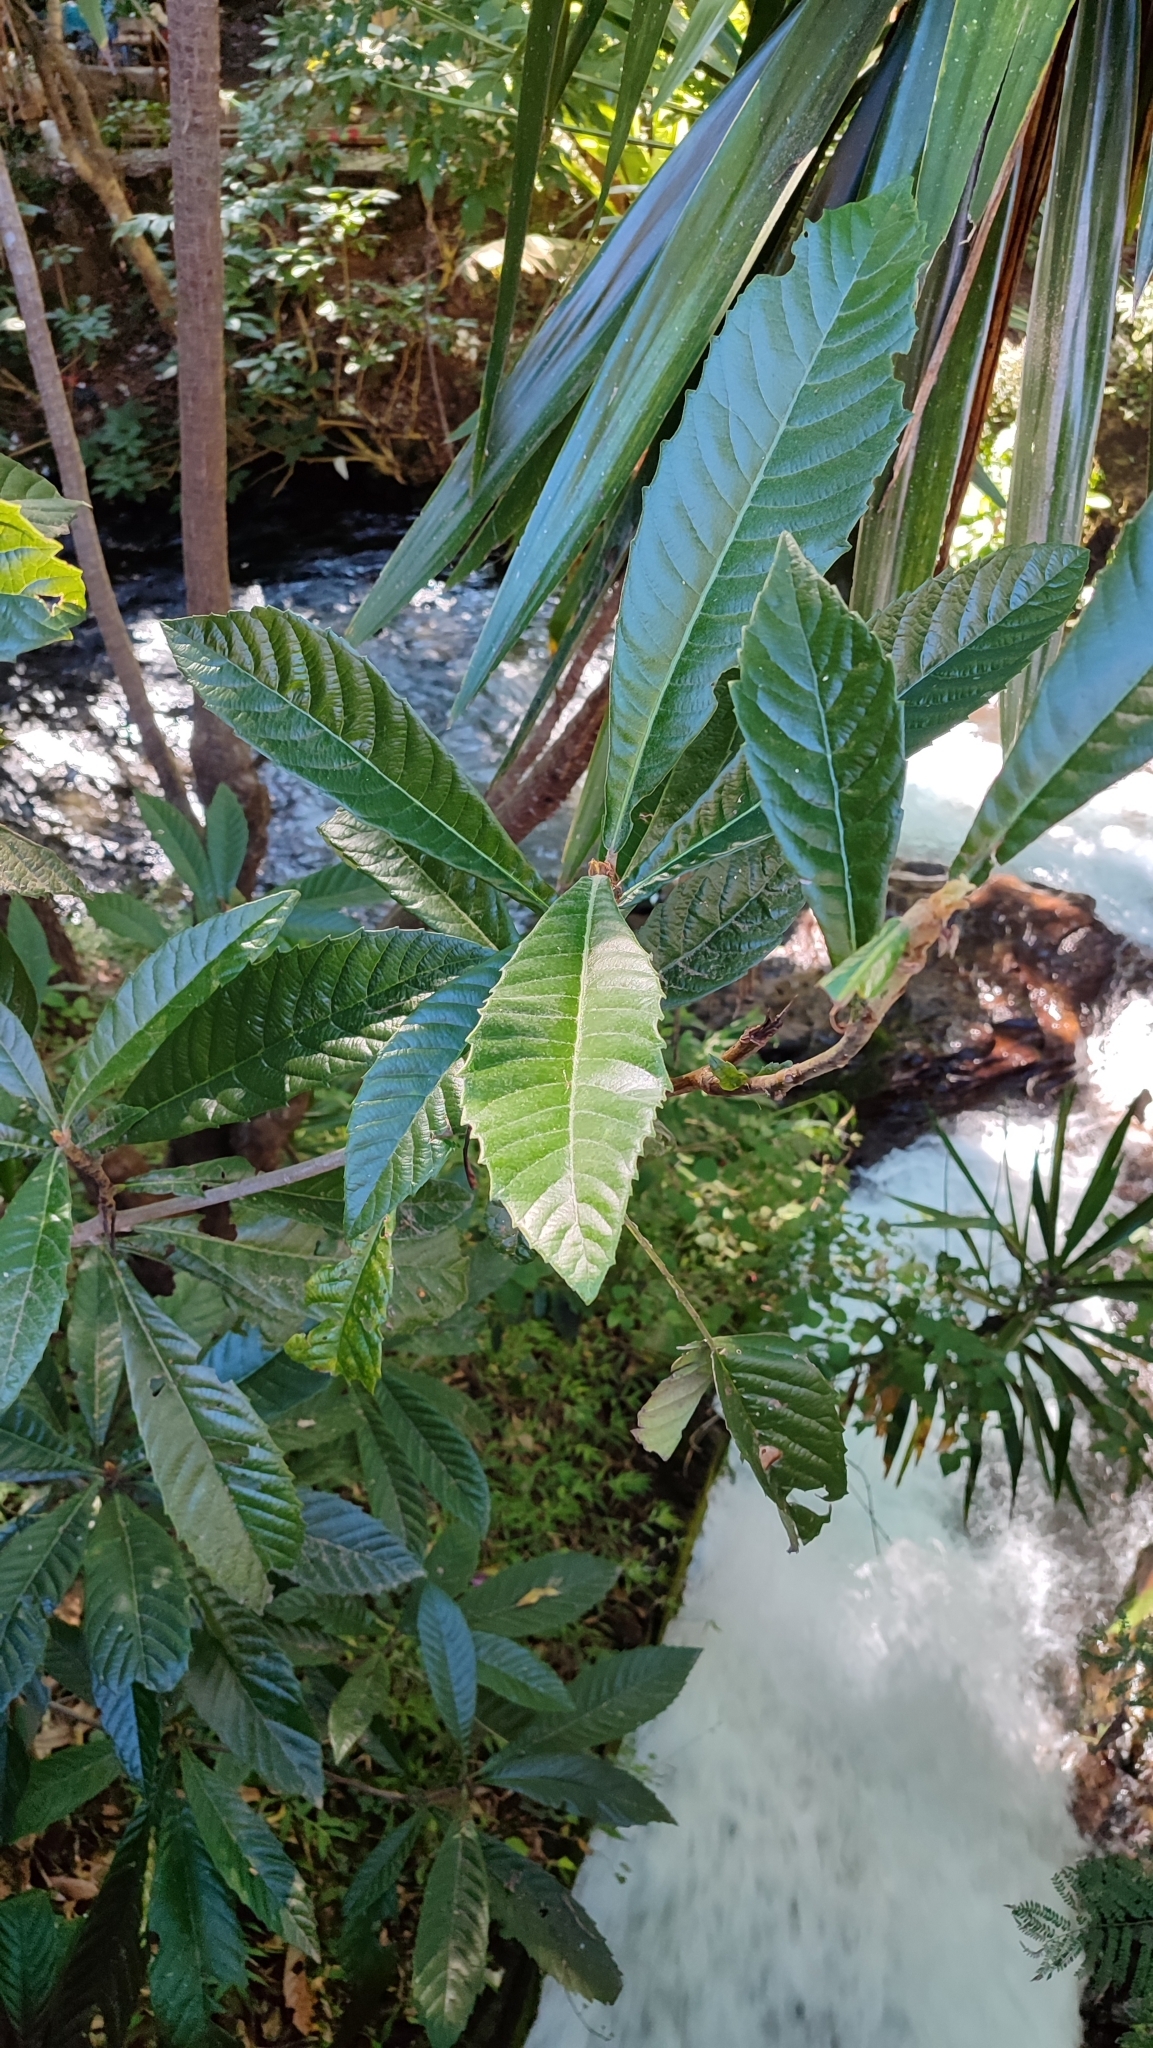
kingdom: Plantae
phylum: Tracheophyta
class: Magnoliopsida
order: Rosales
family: Rosaceae
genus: Rhaphiolepis
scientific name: Rhaphiolepis bibas
